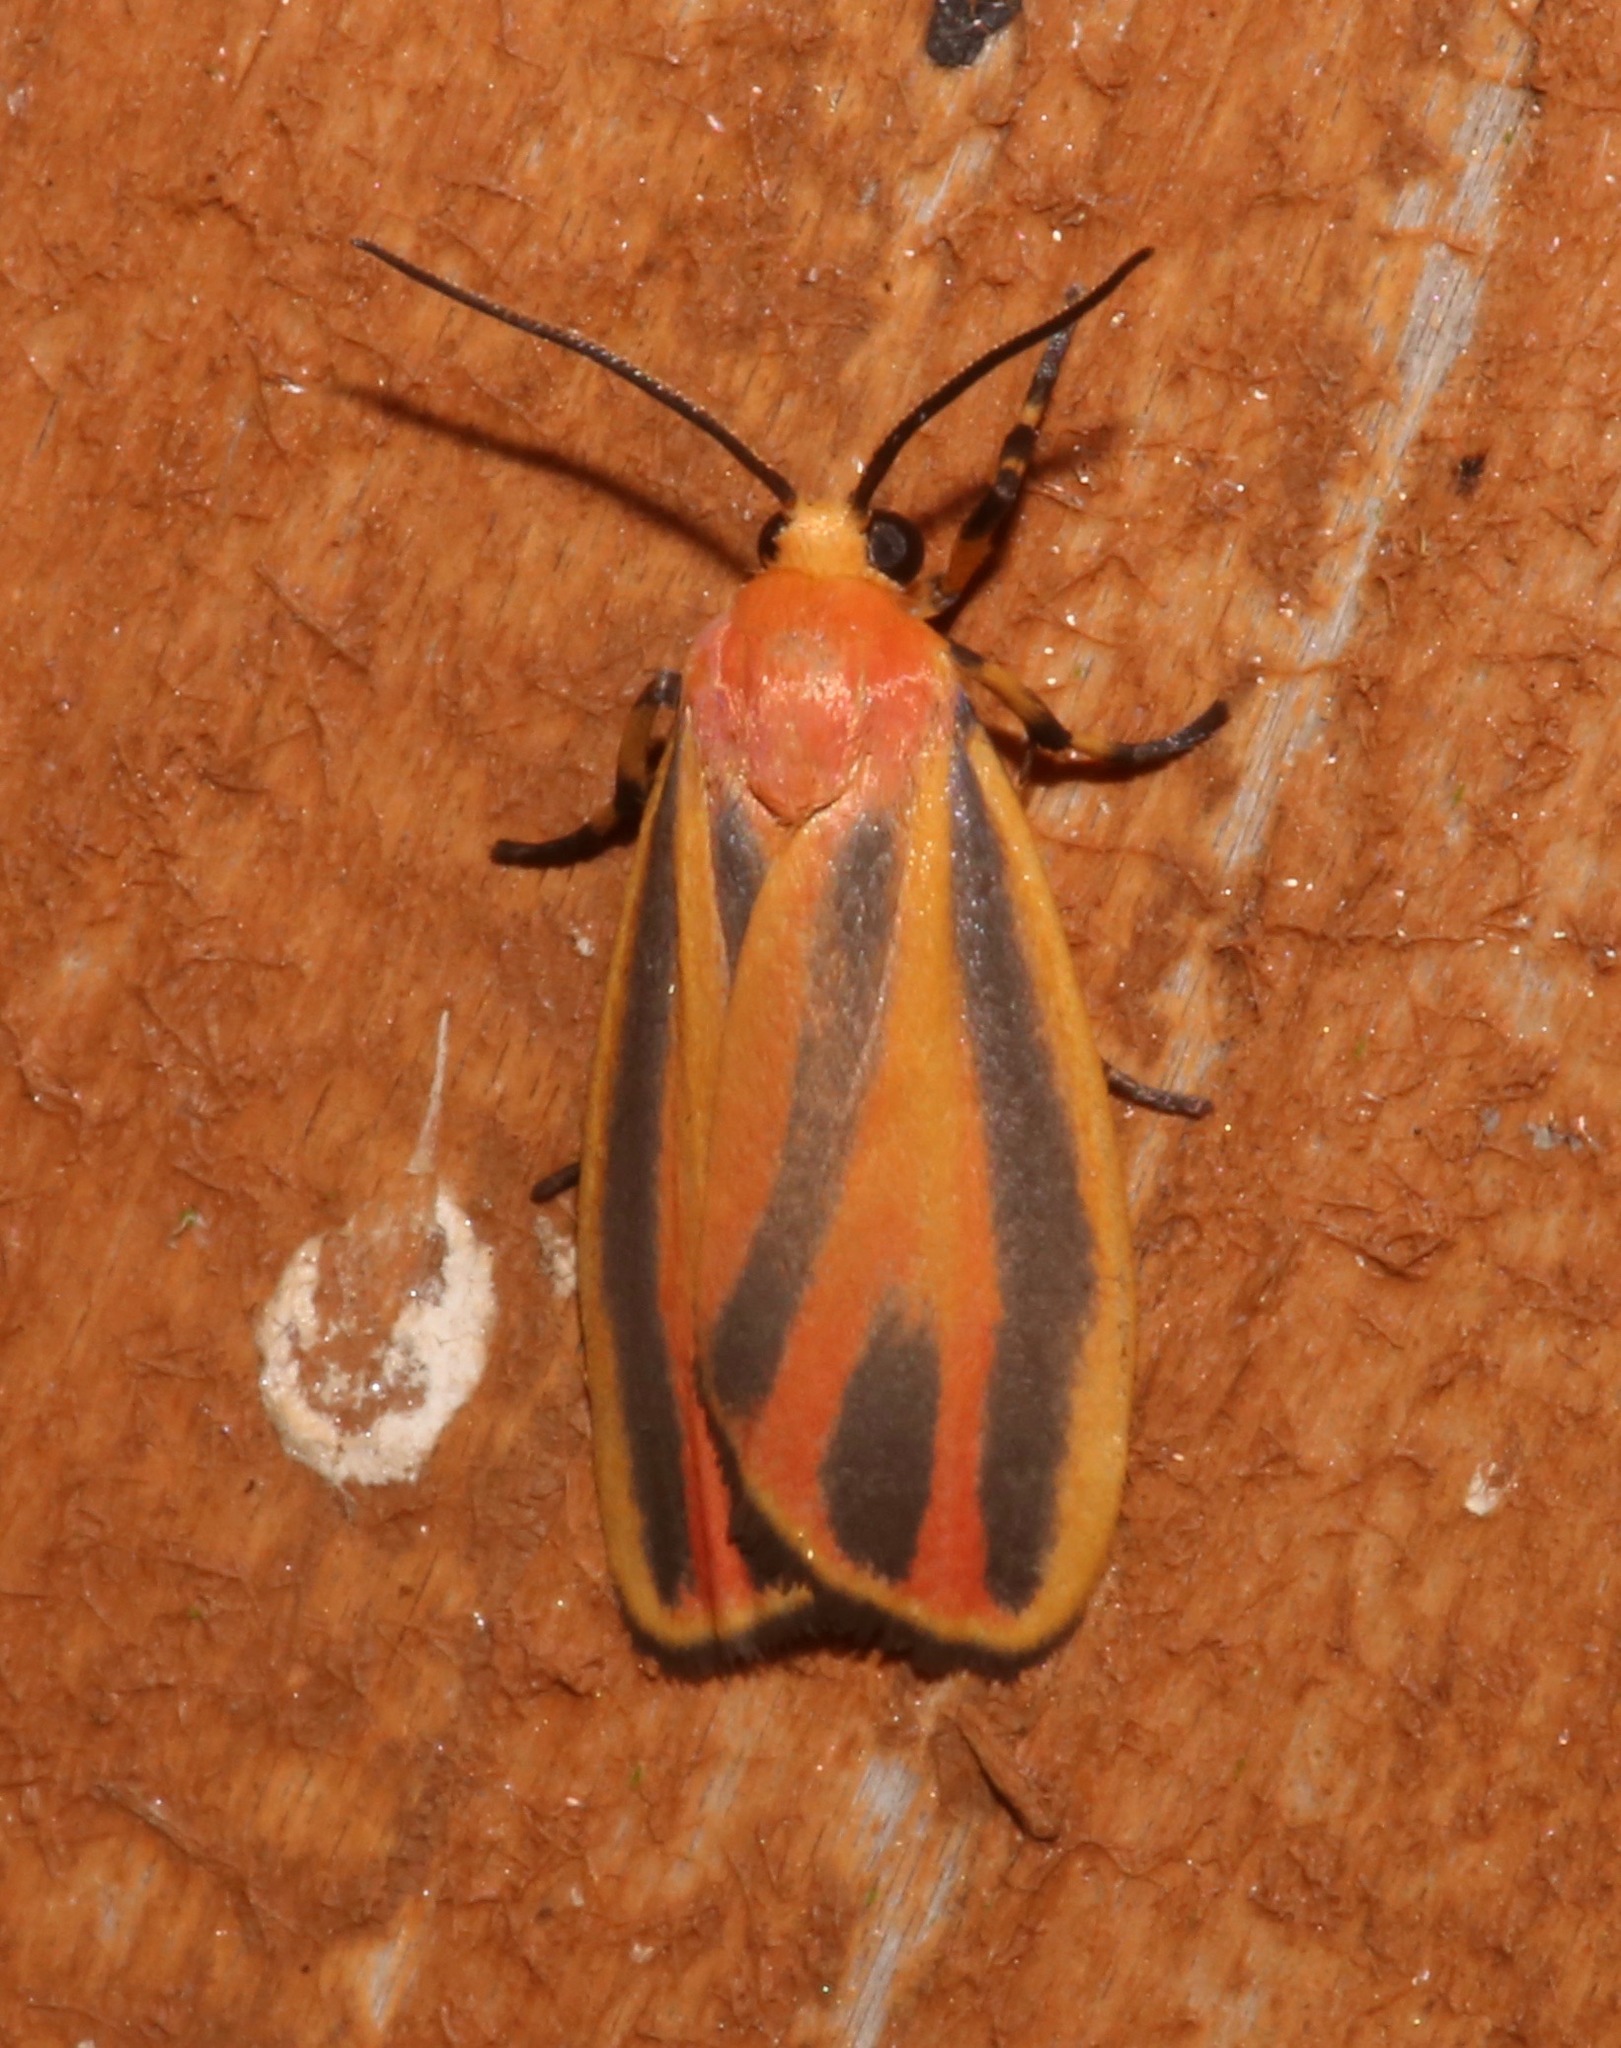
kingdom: Animalia
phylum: Arthropoda
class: Insecta
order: Lepidoptera
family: Erebidae
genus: Hypoprepia
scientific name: Hypoprepia fucosa
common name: Painted lichen moth
